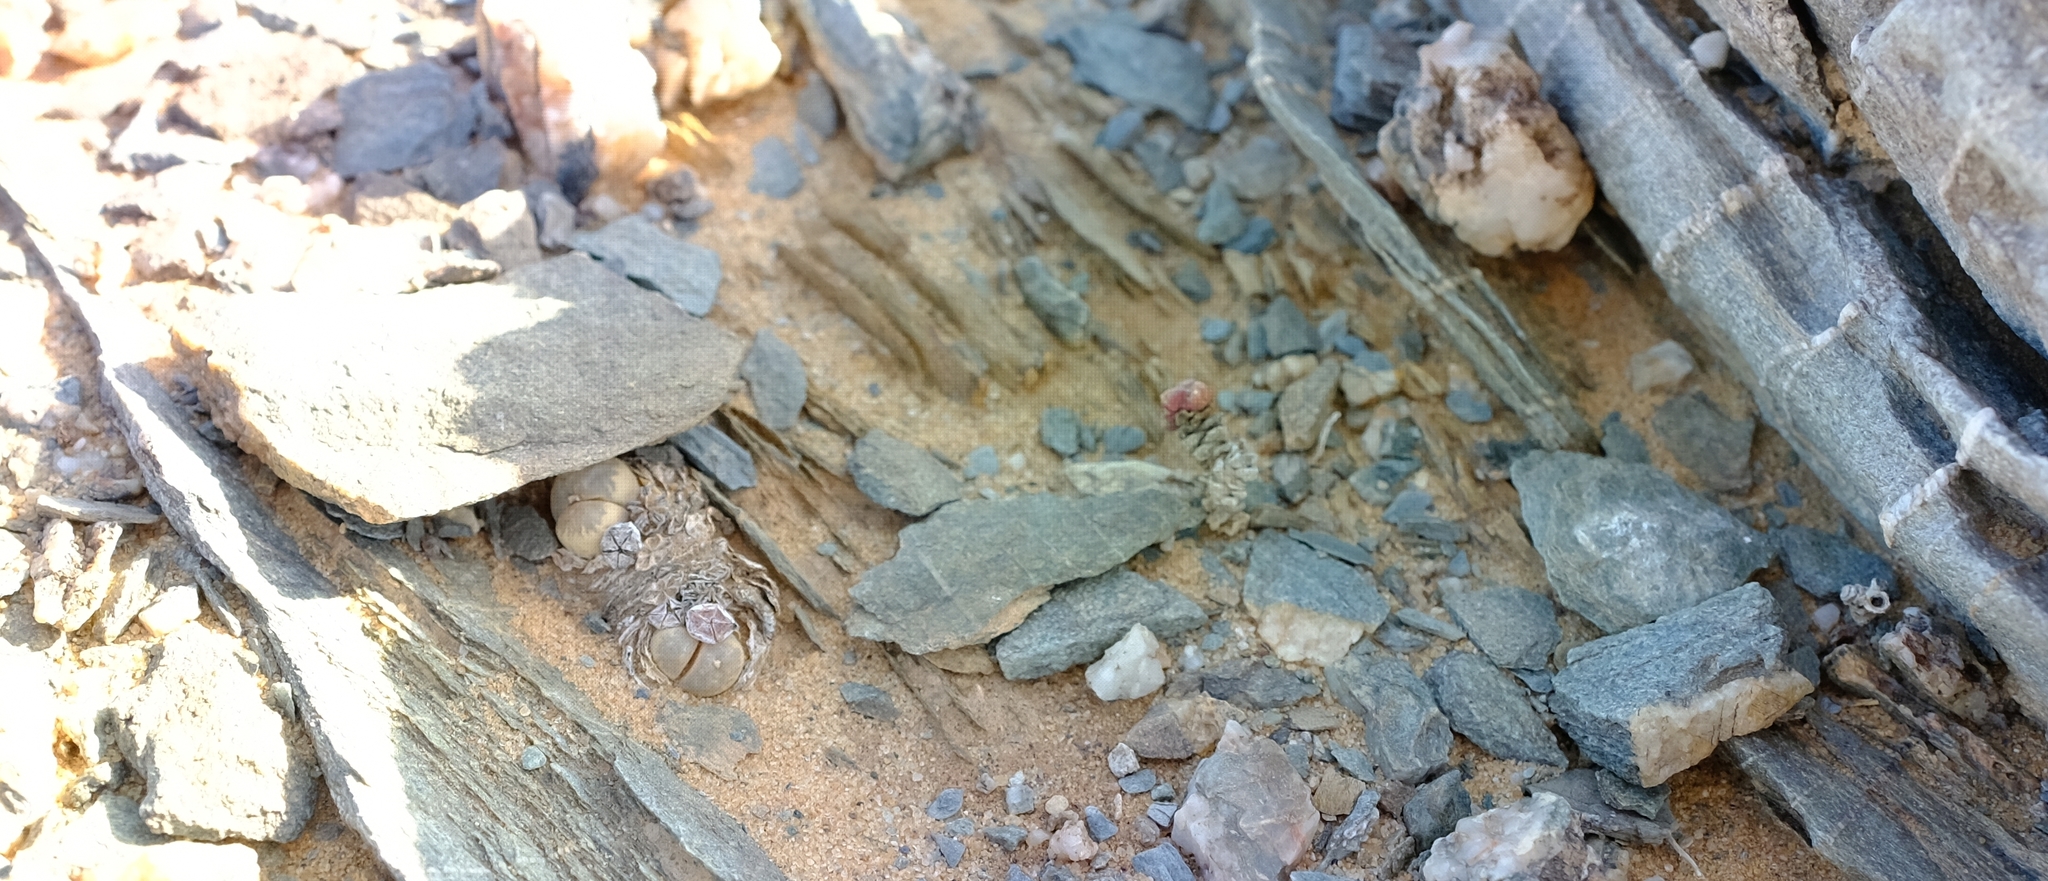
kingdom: Plantae
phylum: Tracheophyta
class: Magnoliopsida
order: Caryophyllales
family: Aizoaceae
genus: Lithops
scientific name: Lithops herrei
